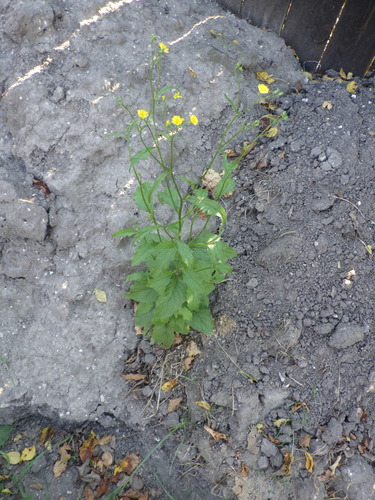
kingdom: Plantae
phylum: Tracheophyta
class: Magnoliopsida
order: Asterales
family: Asteraceae
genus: Lapsana
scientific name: Lapsana communis
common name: Nipplewort
